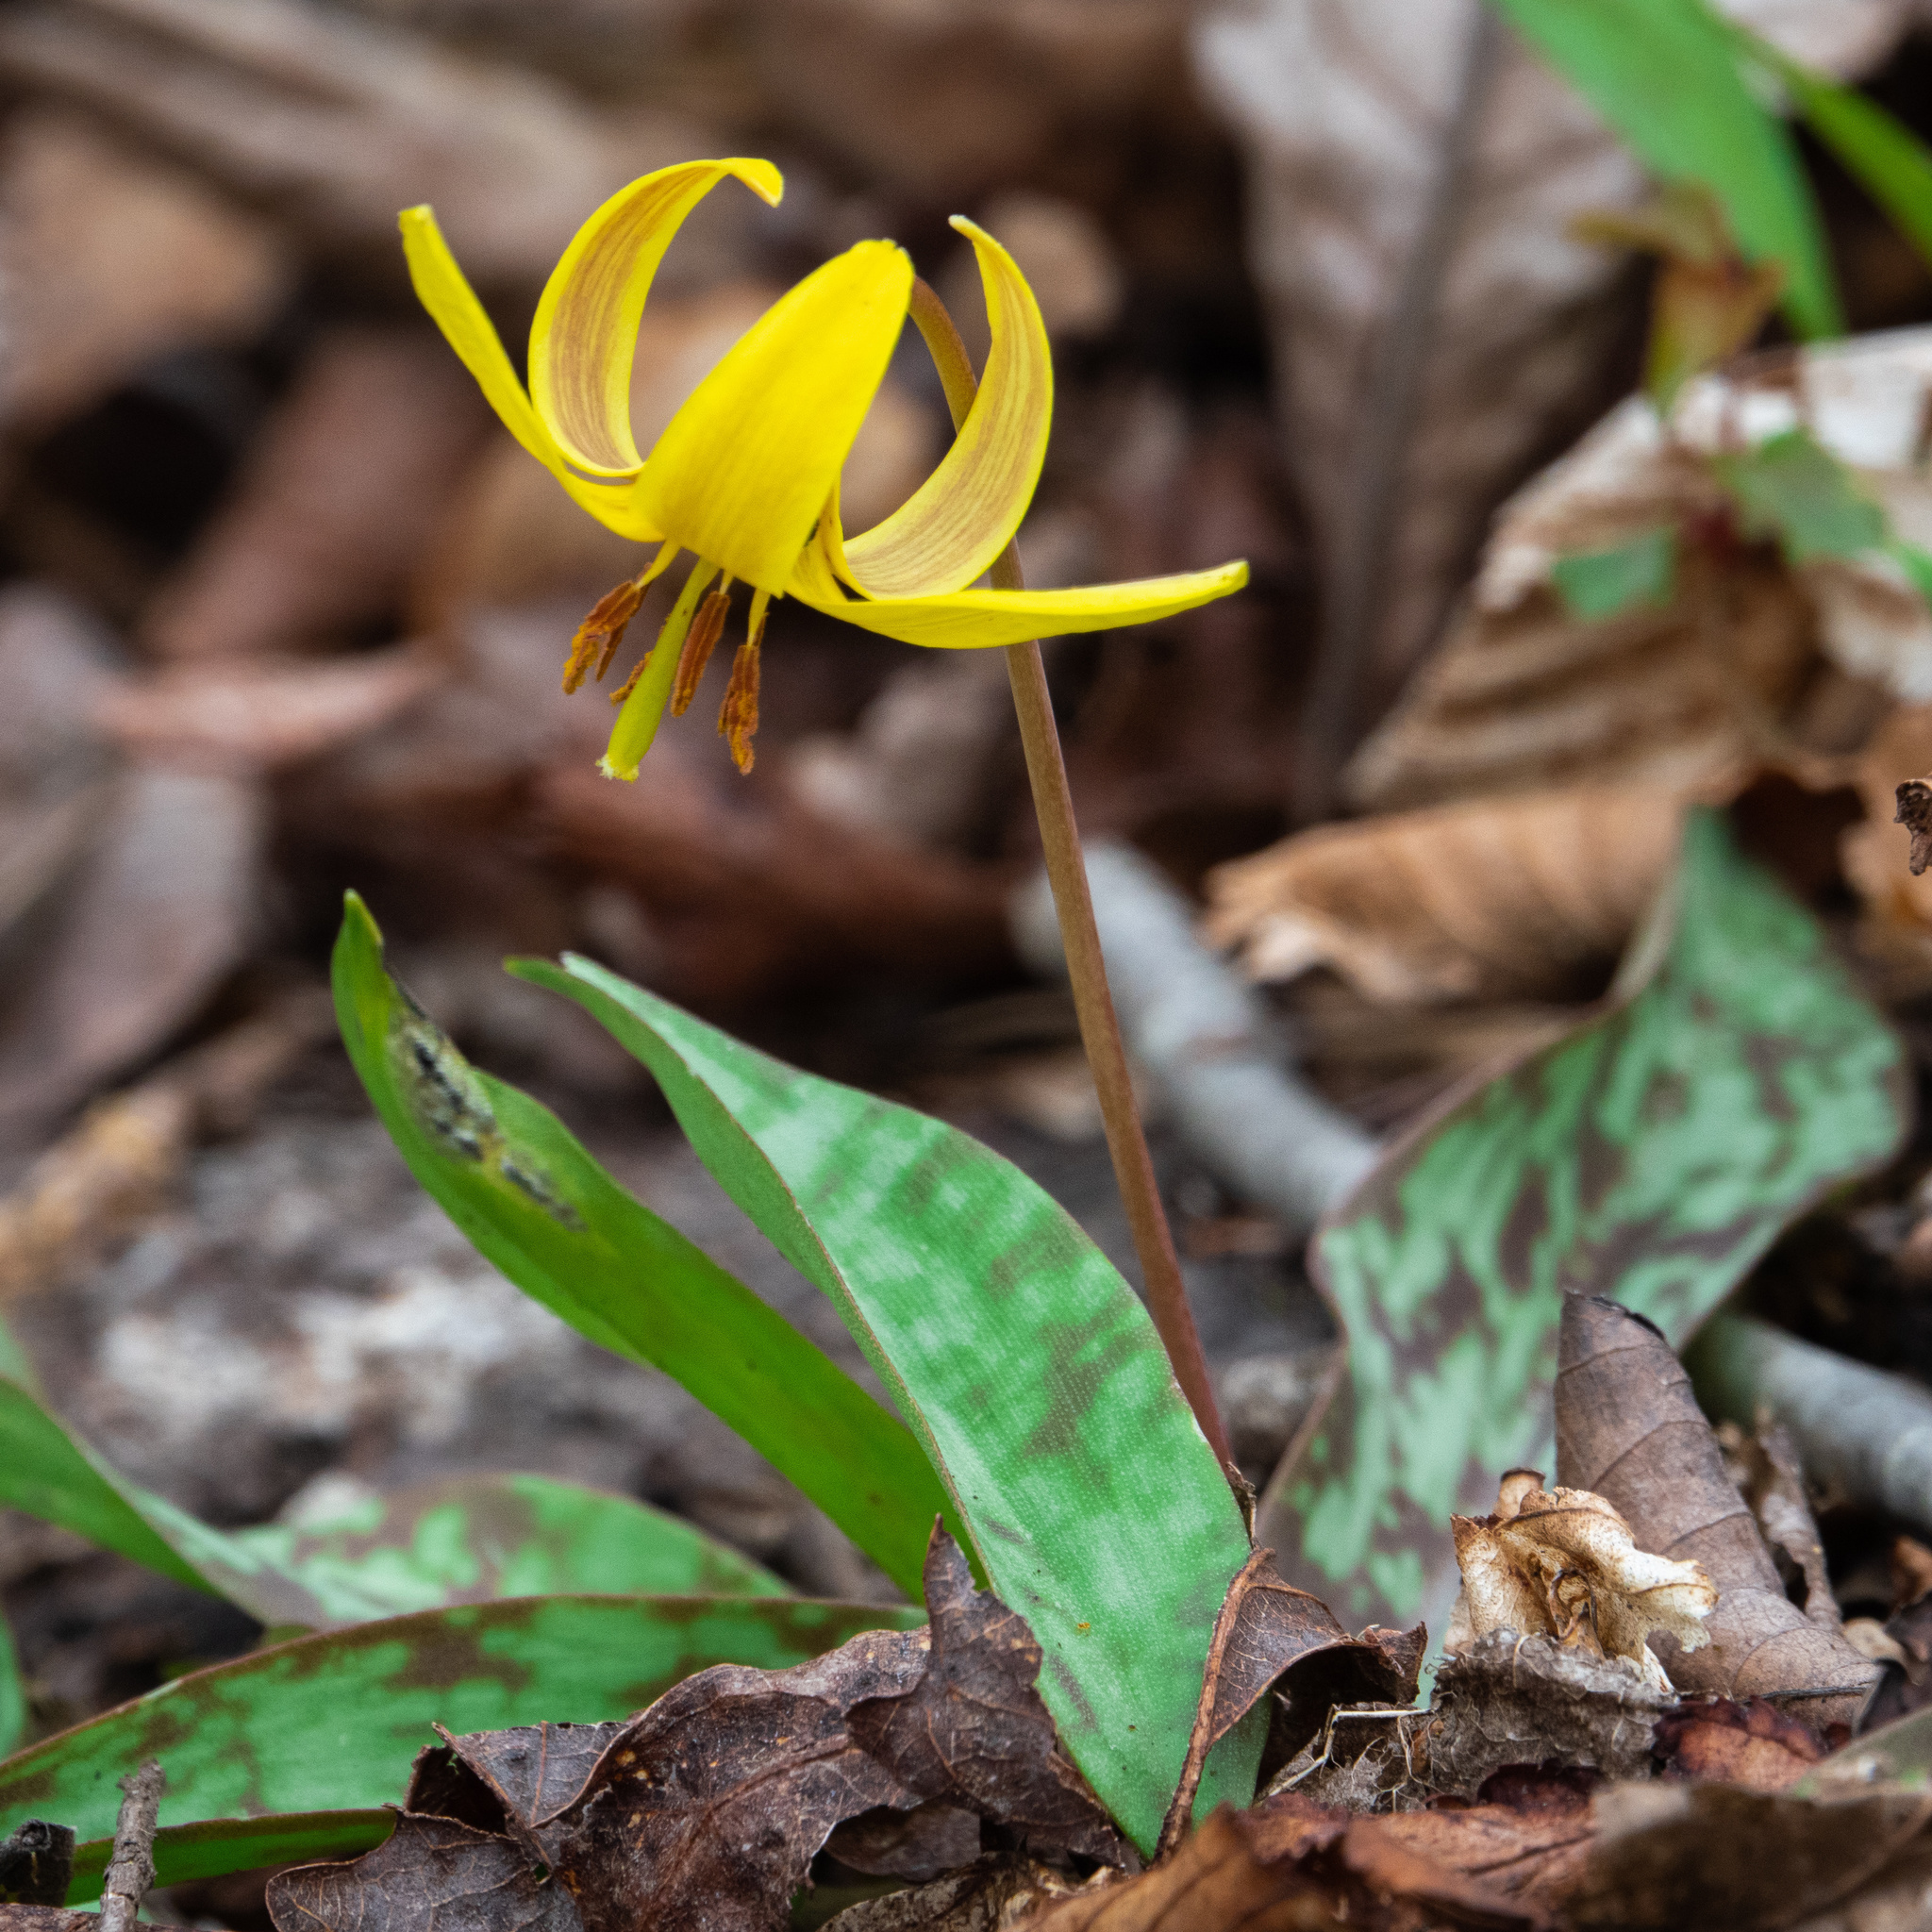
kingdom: Plantae
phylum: Tracheophyta
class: Liliopsida
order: Liliales
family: Liliaceae
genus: Erythronium
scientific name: Erythronium americanum
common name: Yellow adder's-tongue
